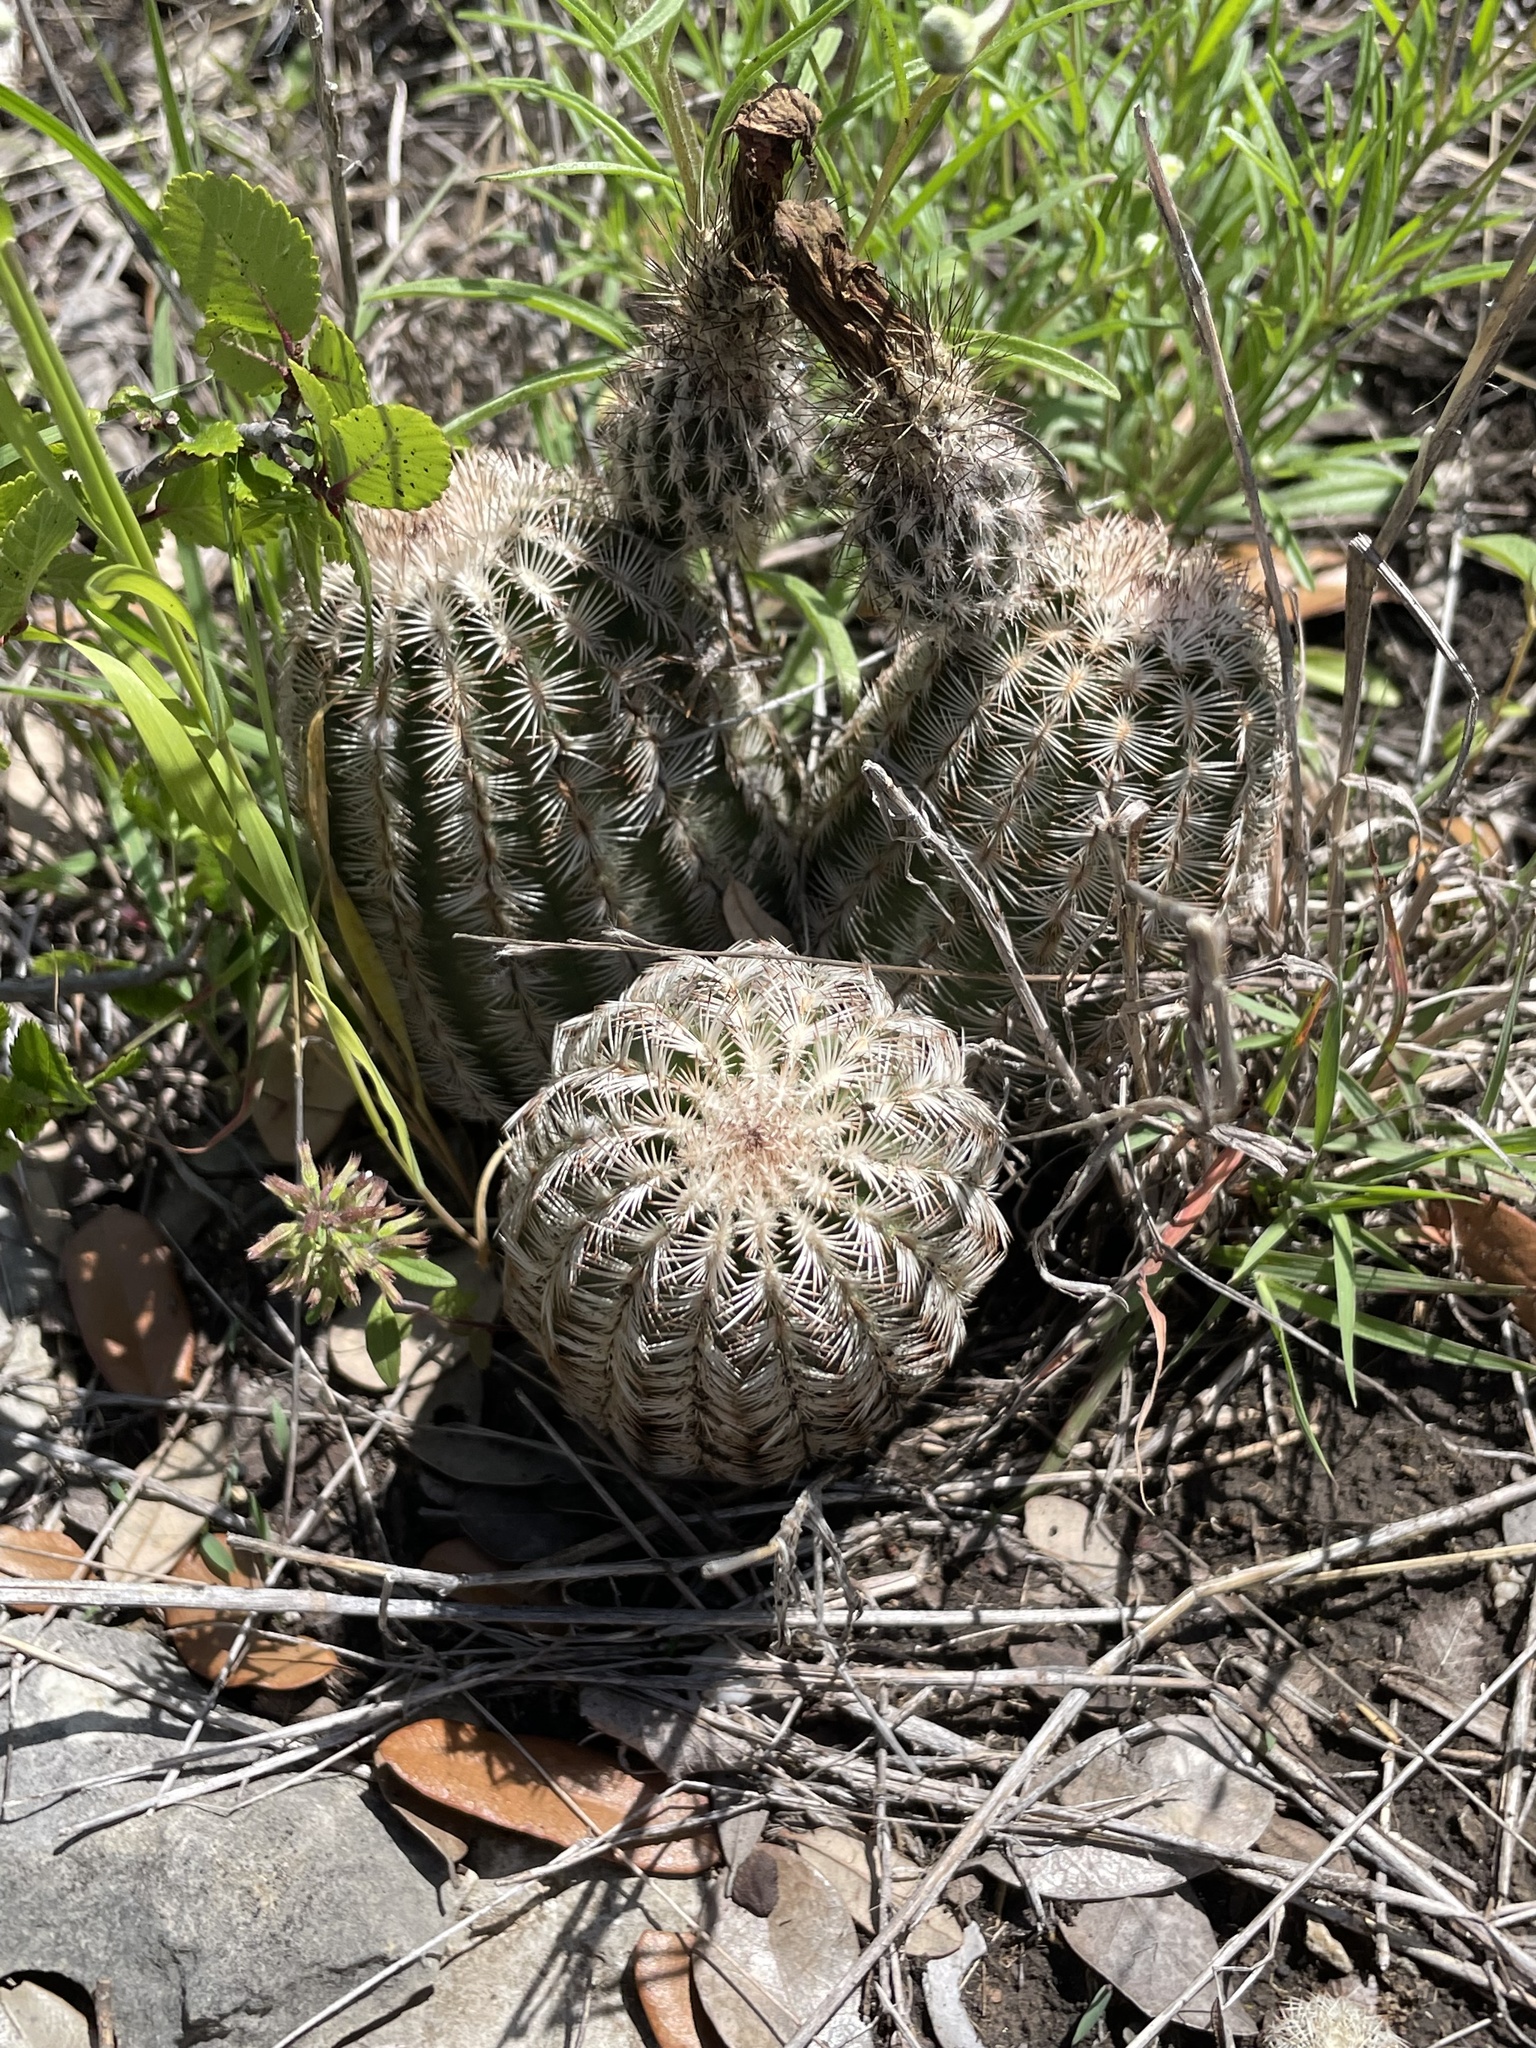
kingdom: Plantae
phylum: Tracheophyta
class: Magnoliopsida
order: Caryophyllales
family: Cactaceae
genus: Echinocereus
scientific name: Echinocereus reichenbachii
